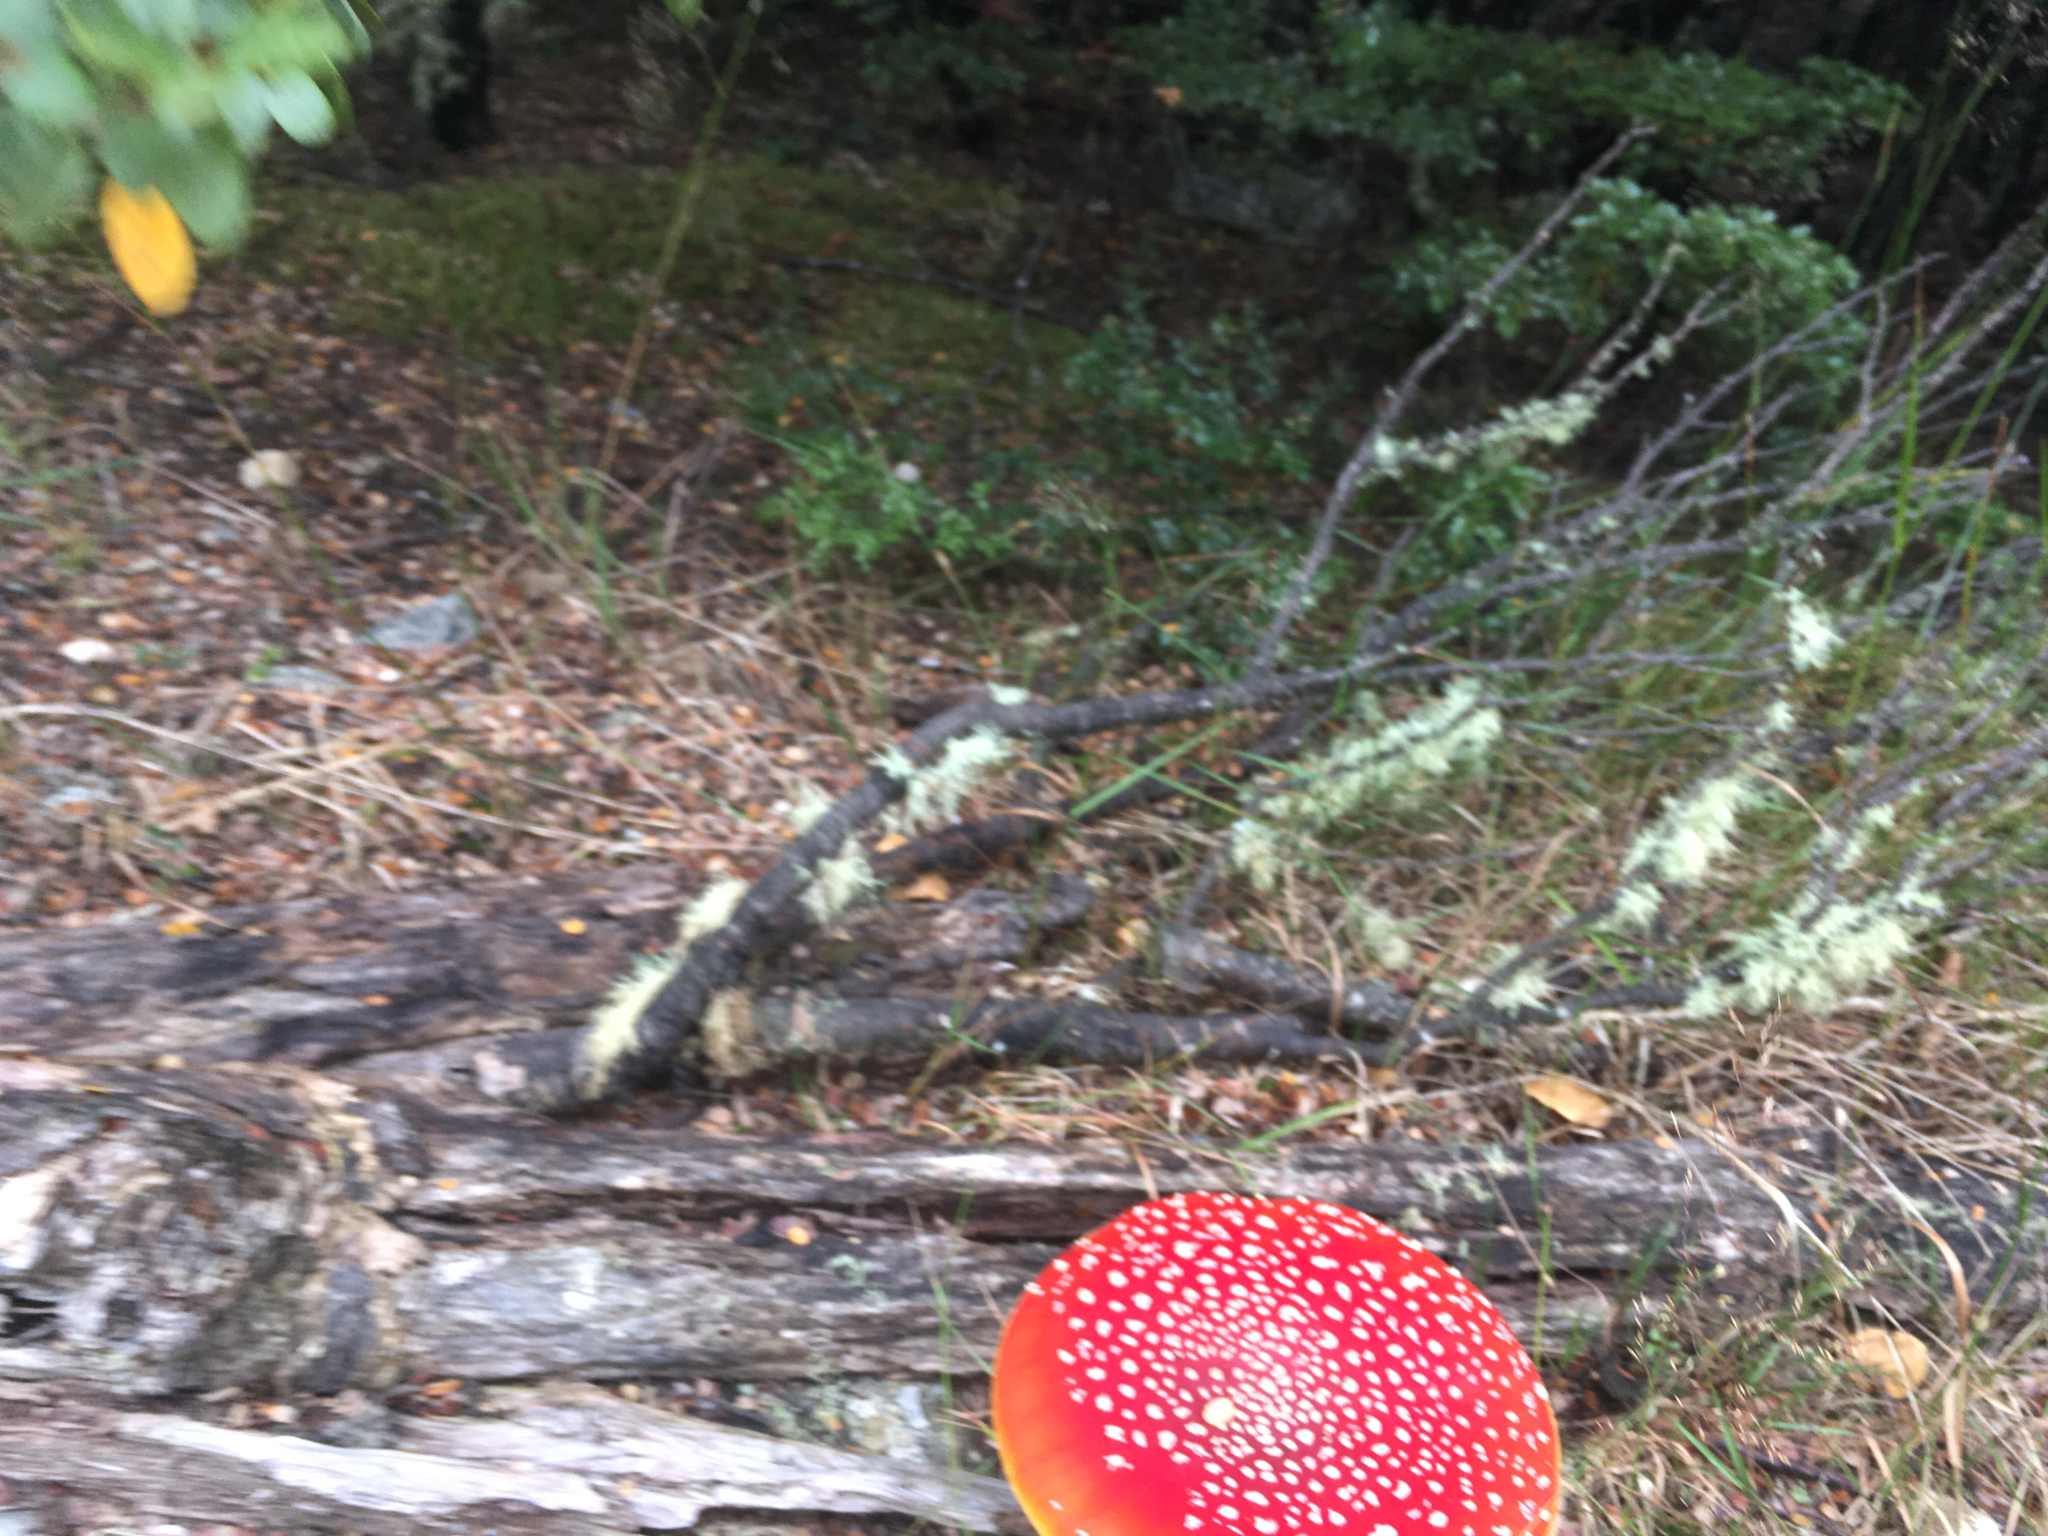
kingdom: Fungi
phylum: Basidiomycota
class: Agaricomycetes
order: Agaricales
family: Amanitaceae
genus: Amanita
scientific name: Amanita muscaria
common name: Fly agaric
